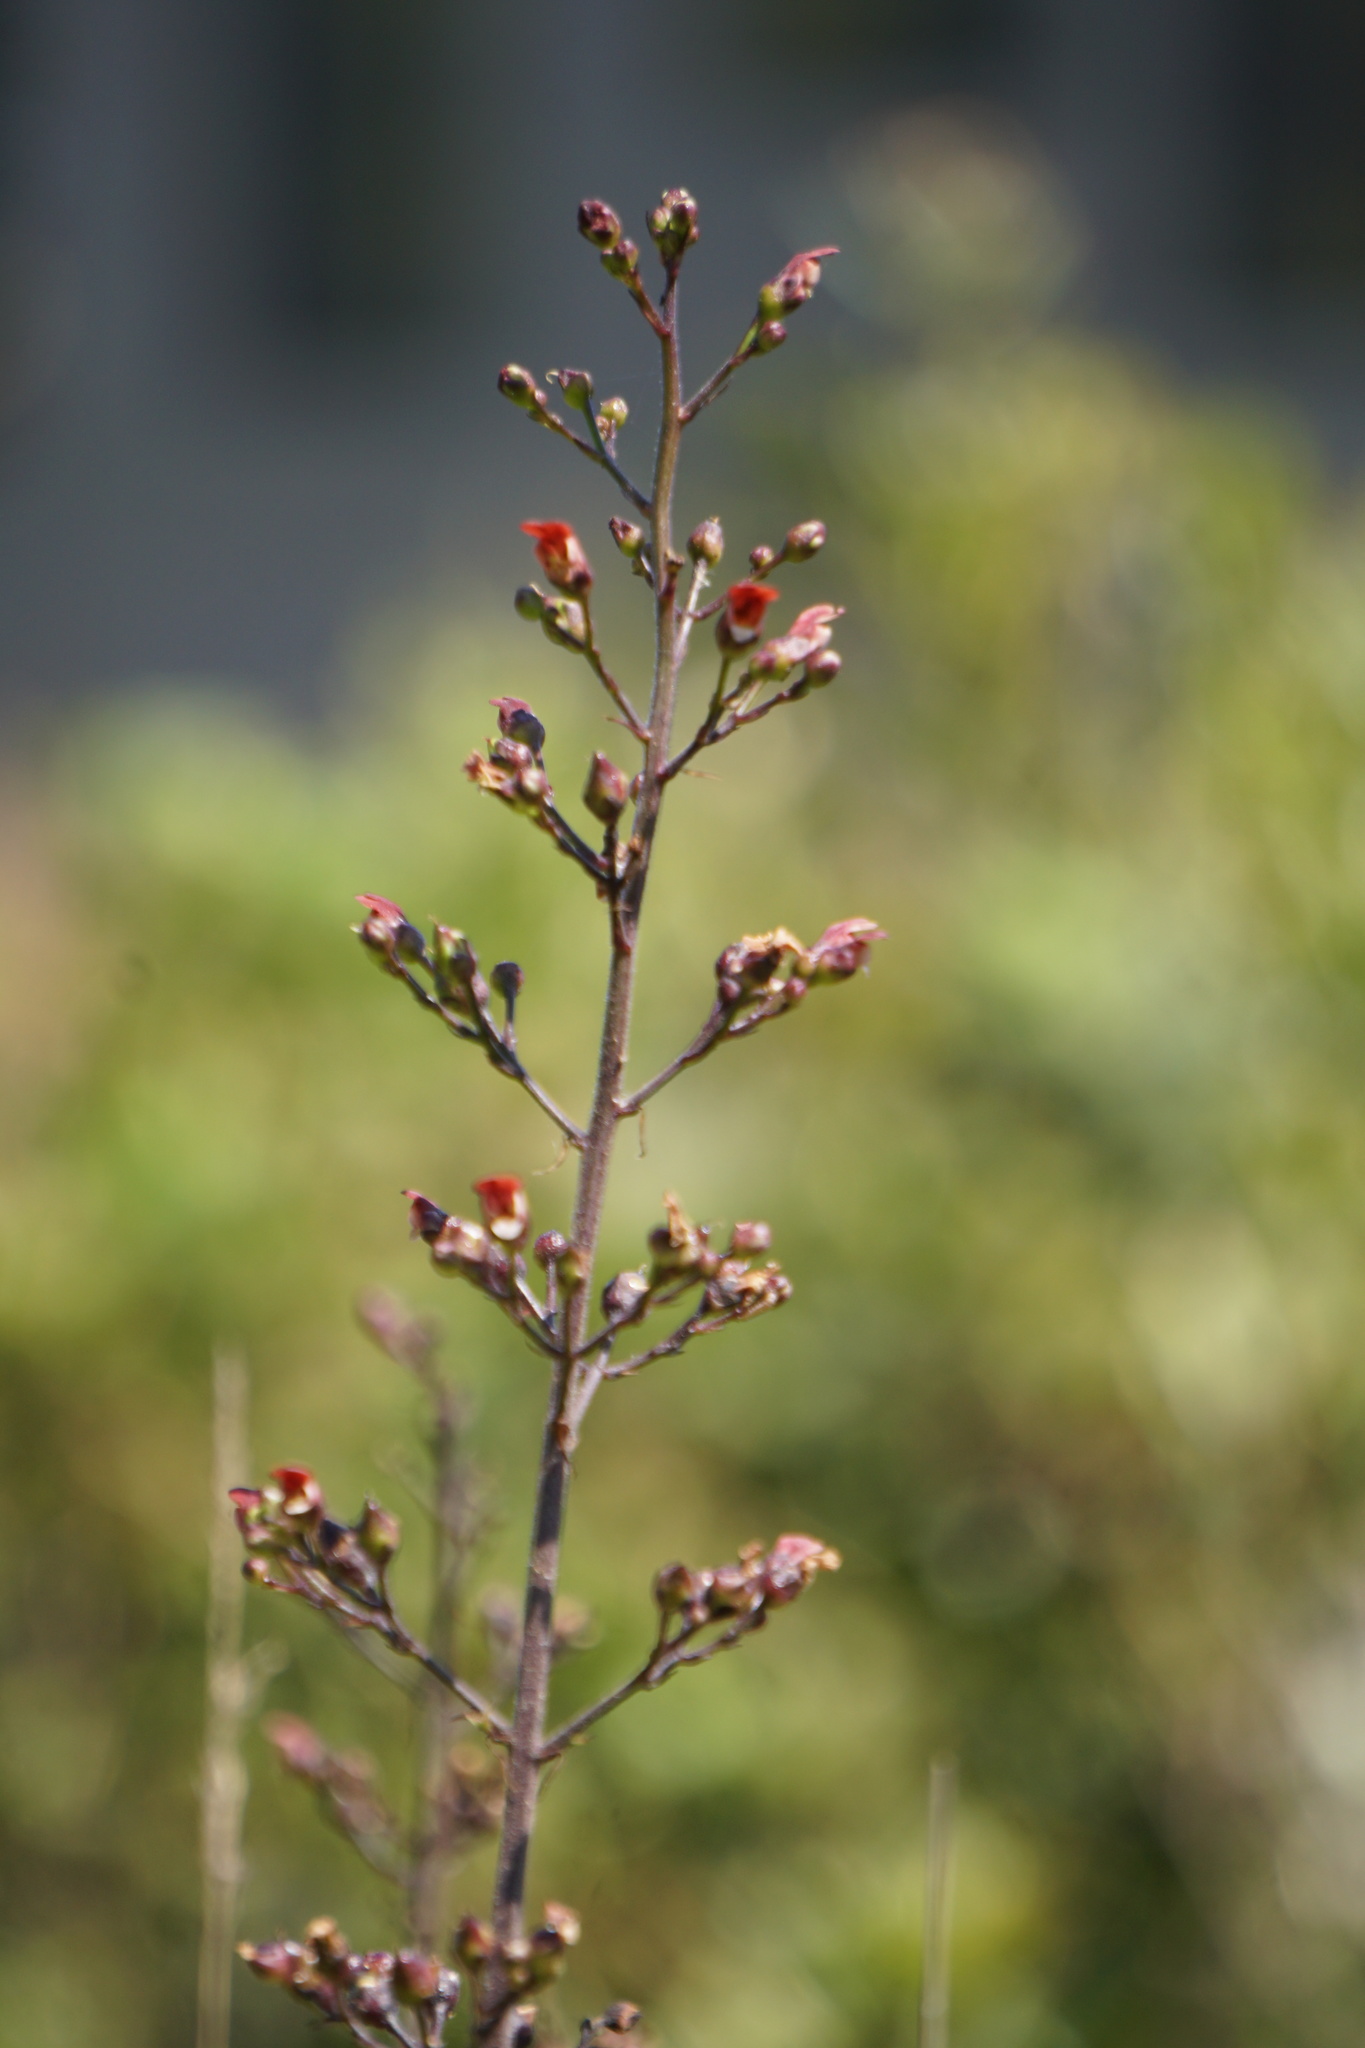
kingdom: Plantae
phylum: Tracheophyta
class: Magnoliopsida
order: Lamiales
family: Scrophulariaceae
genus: Scrophularia
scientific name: Scrophularia californica
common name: California figwort
